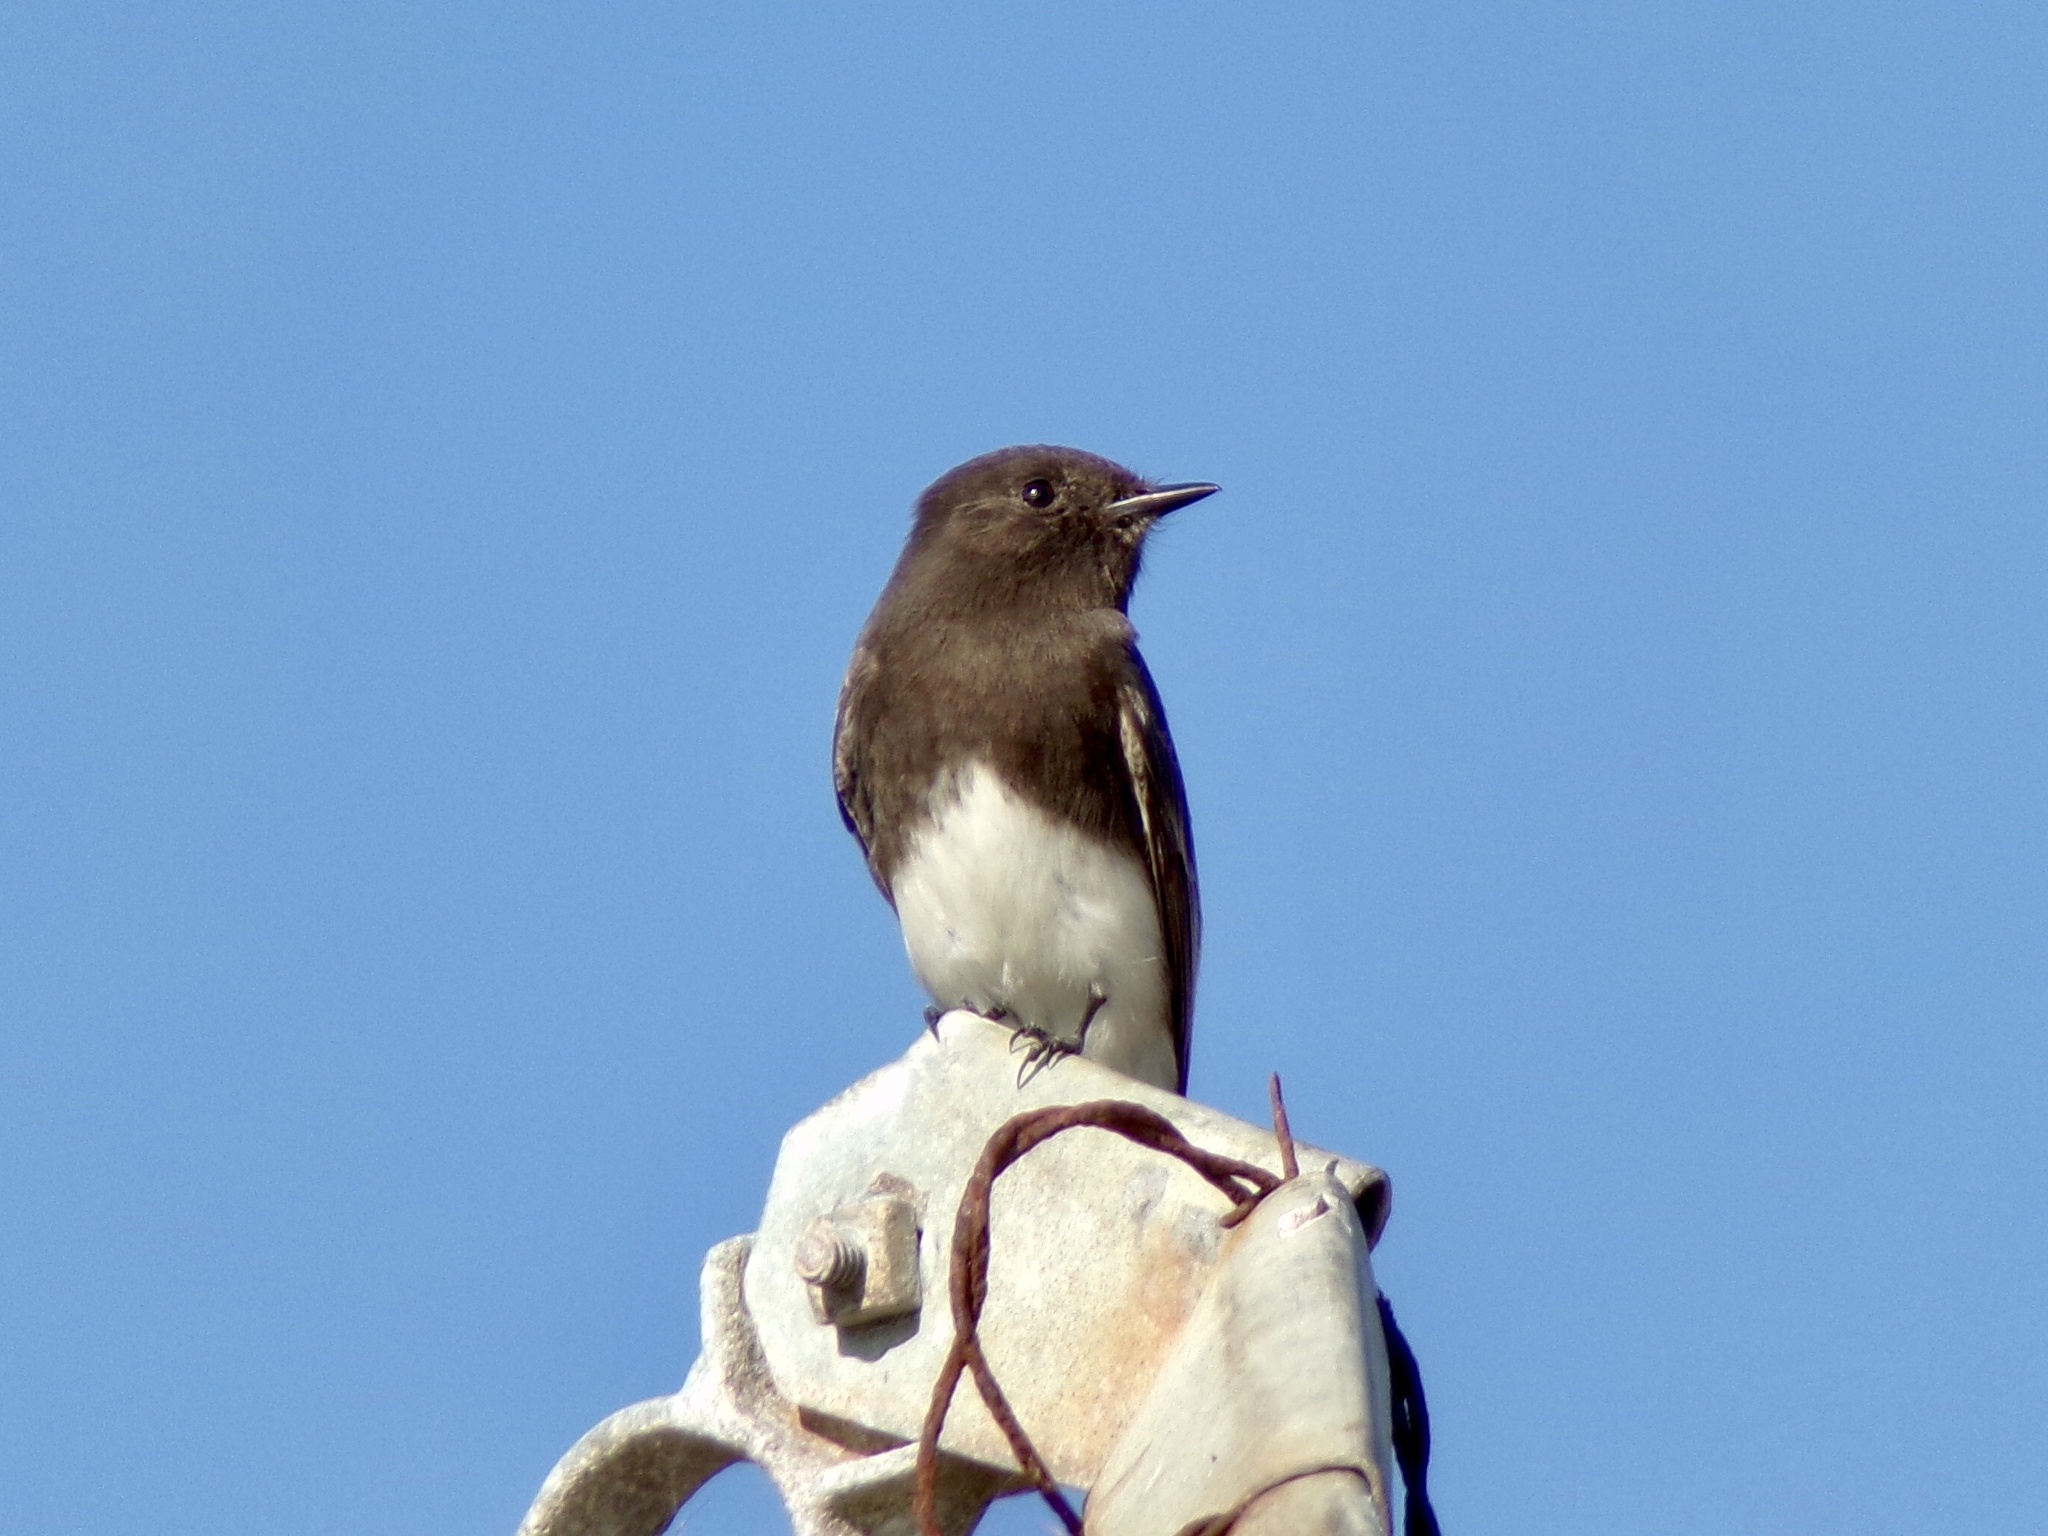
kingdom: Animalia
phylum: Chordata
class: Aves
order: Passeriformes
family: Tyrannidae
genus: Sayornis
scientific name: Sayornis nigricans
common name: Black phoebe
